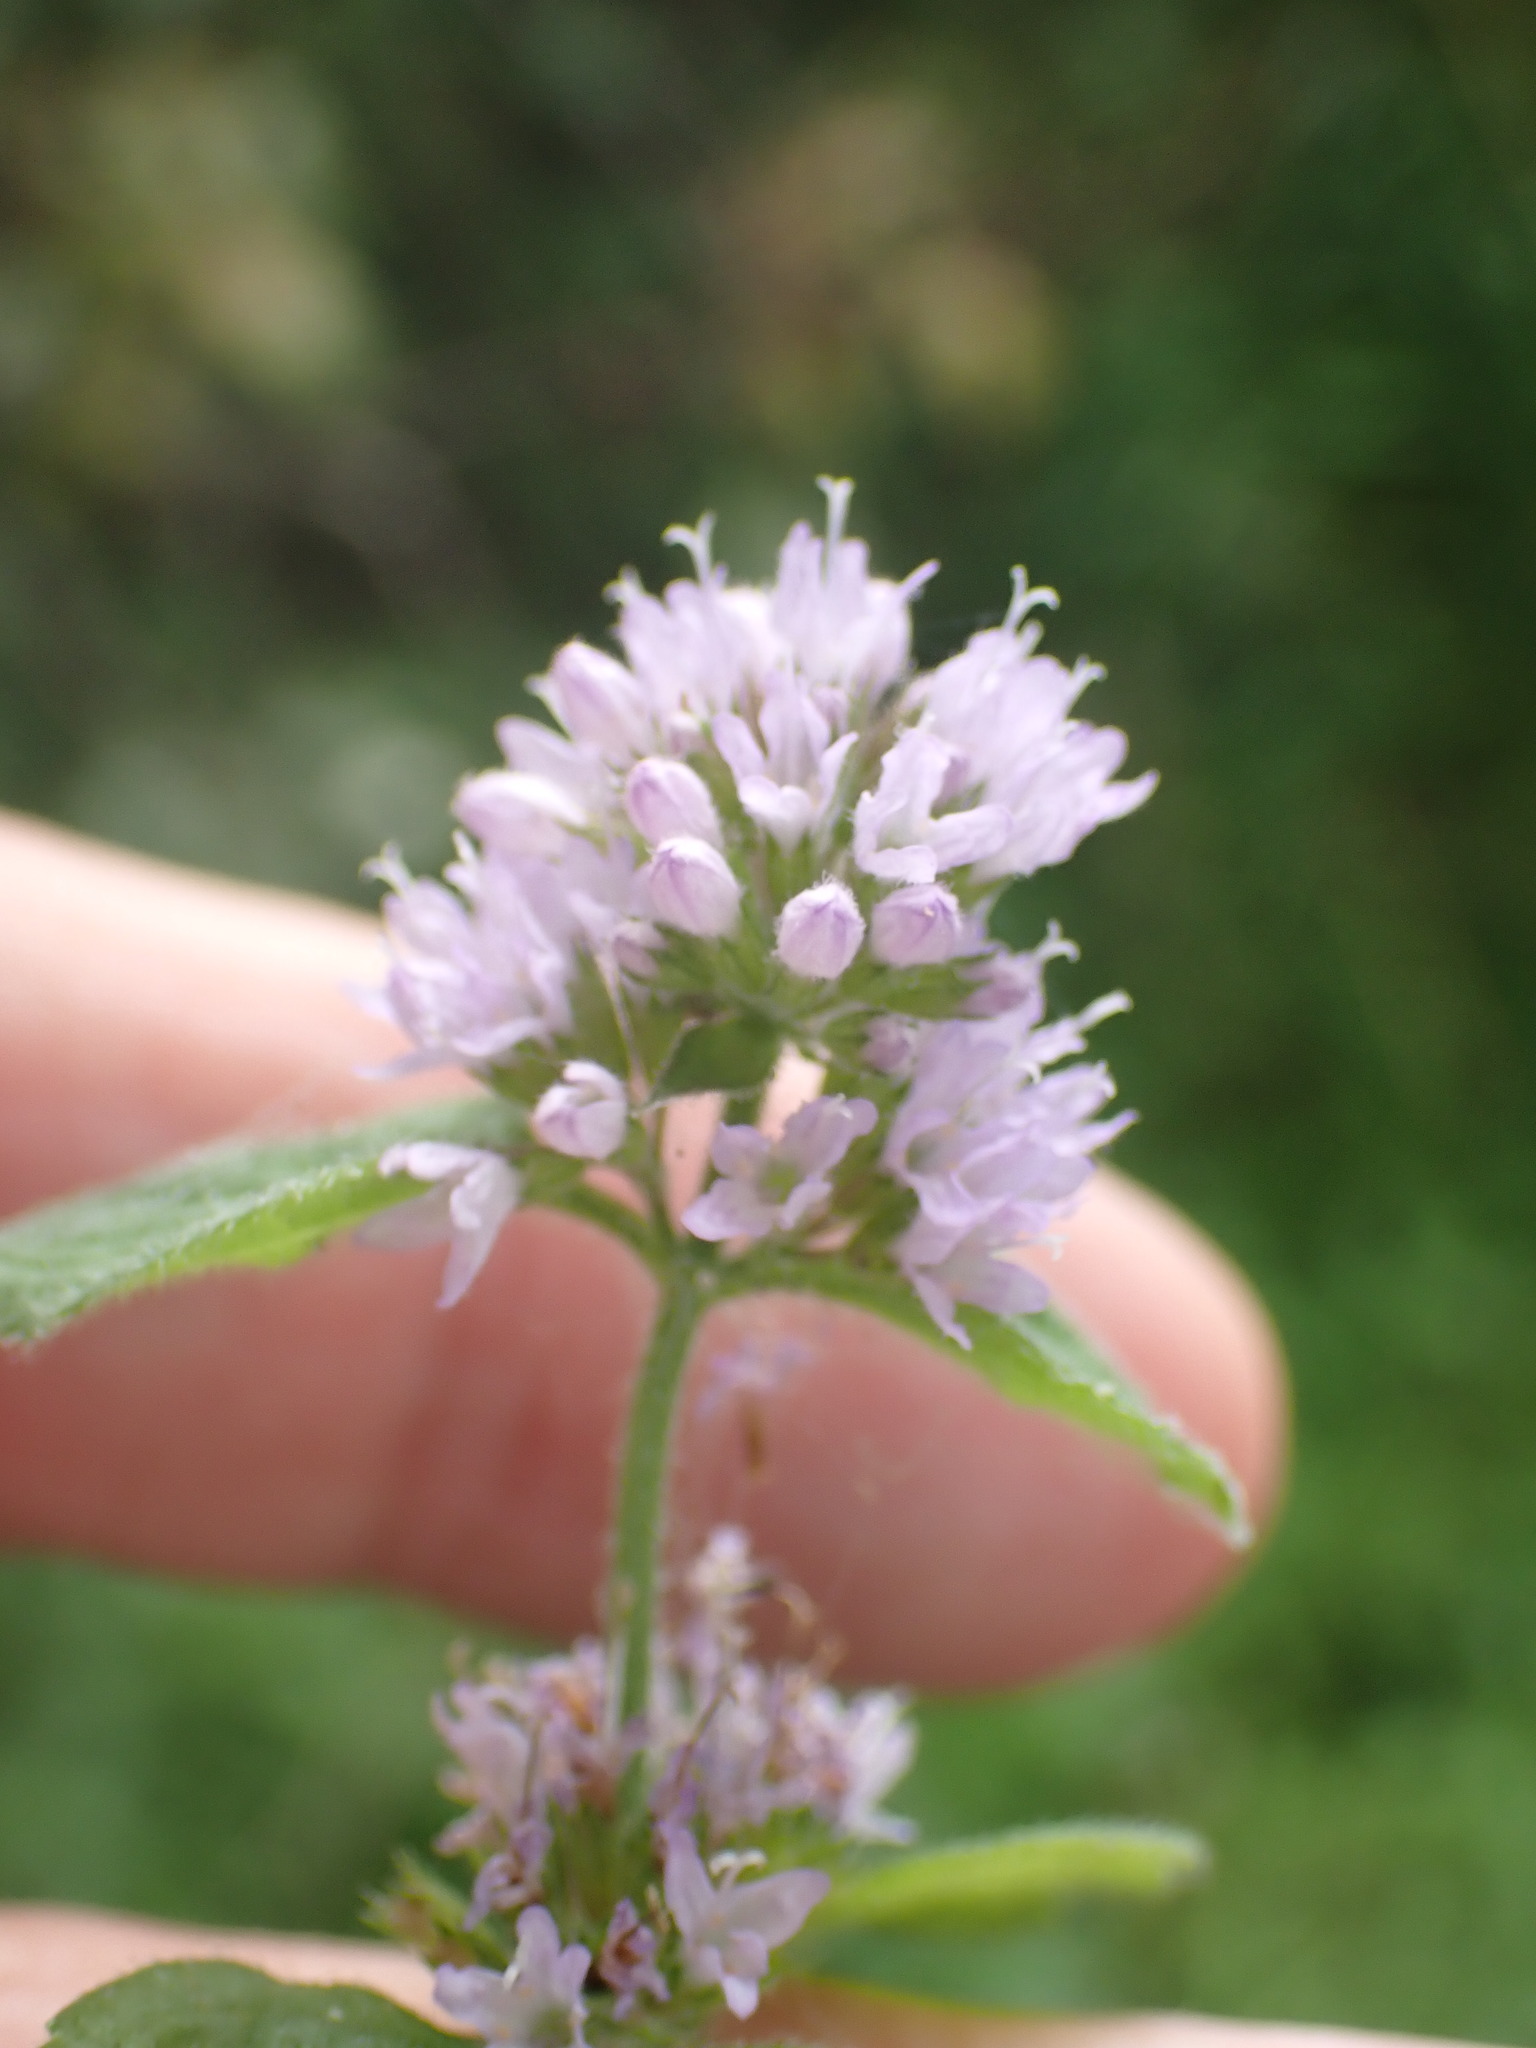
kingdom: Plantae
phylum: Tracheophyta
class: Magnoliopsida
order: Lamiales
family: Lamiaceae
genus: Mentha
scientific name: Mentha aquatica
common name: Water mint
